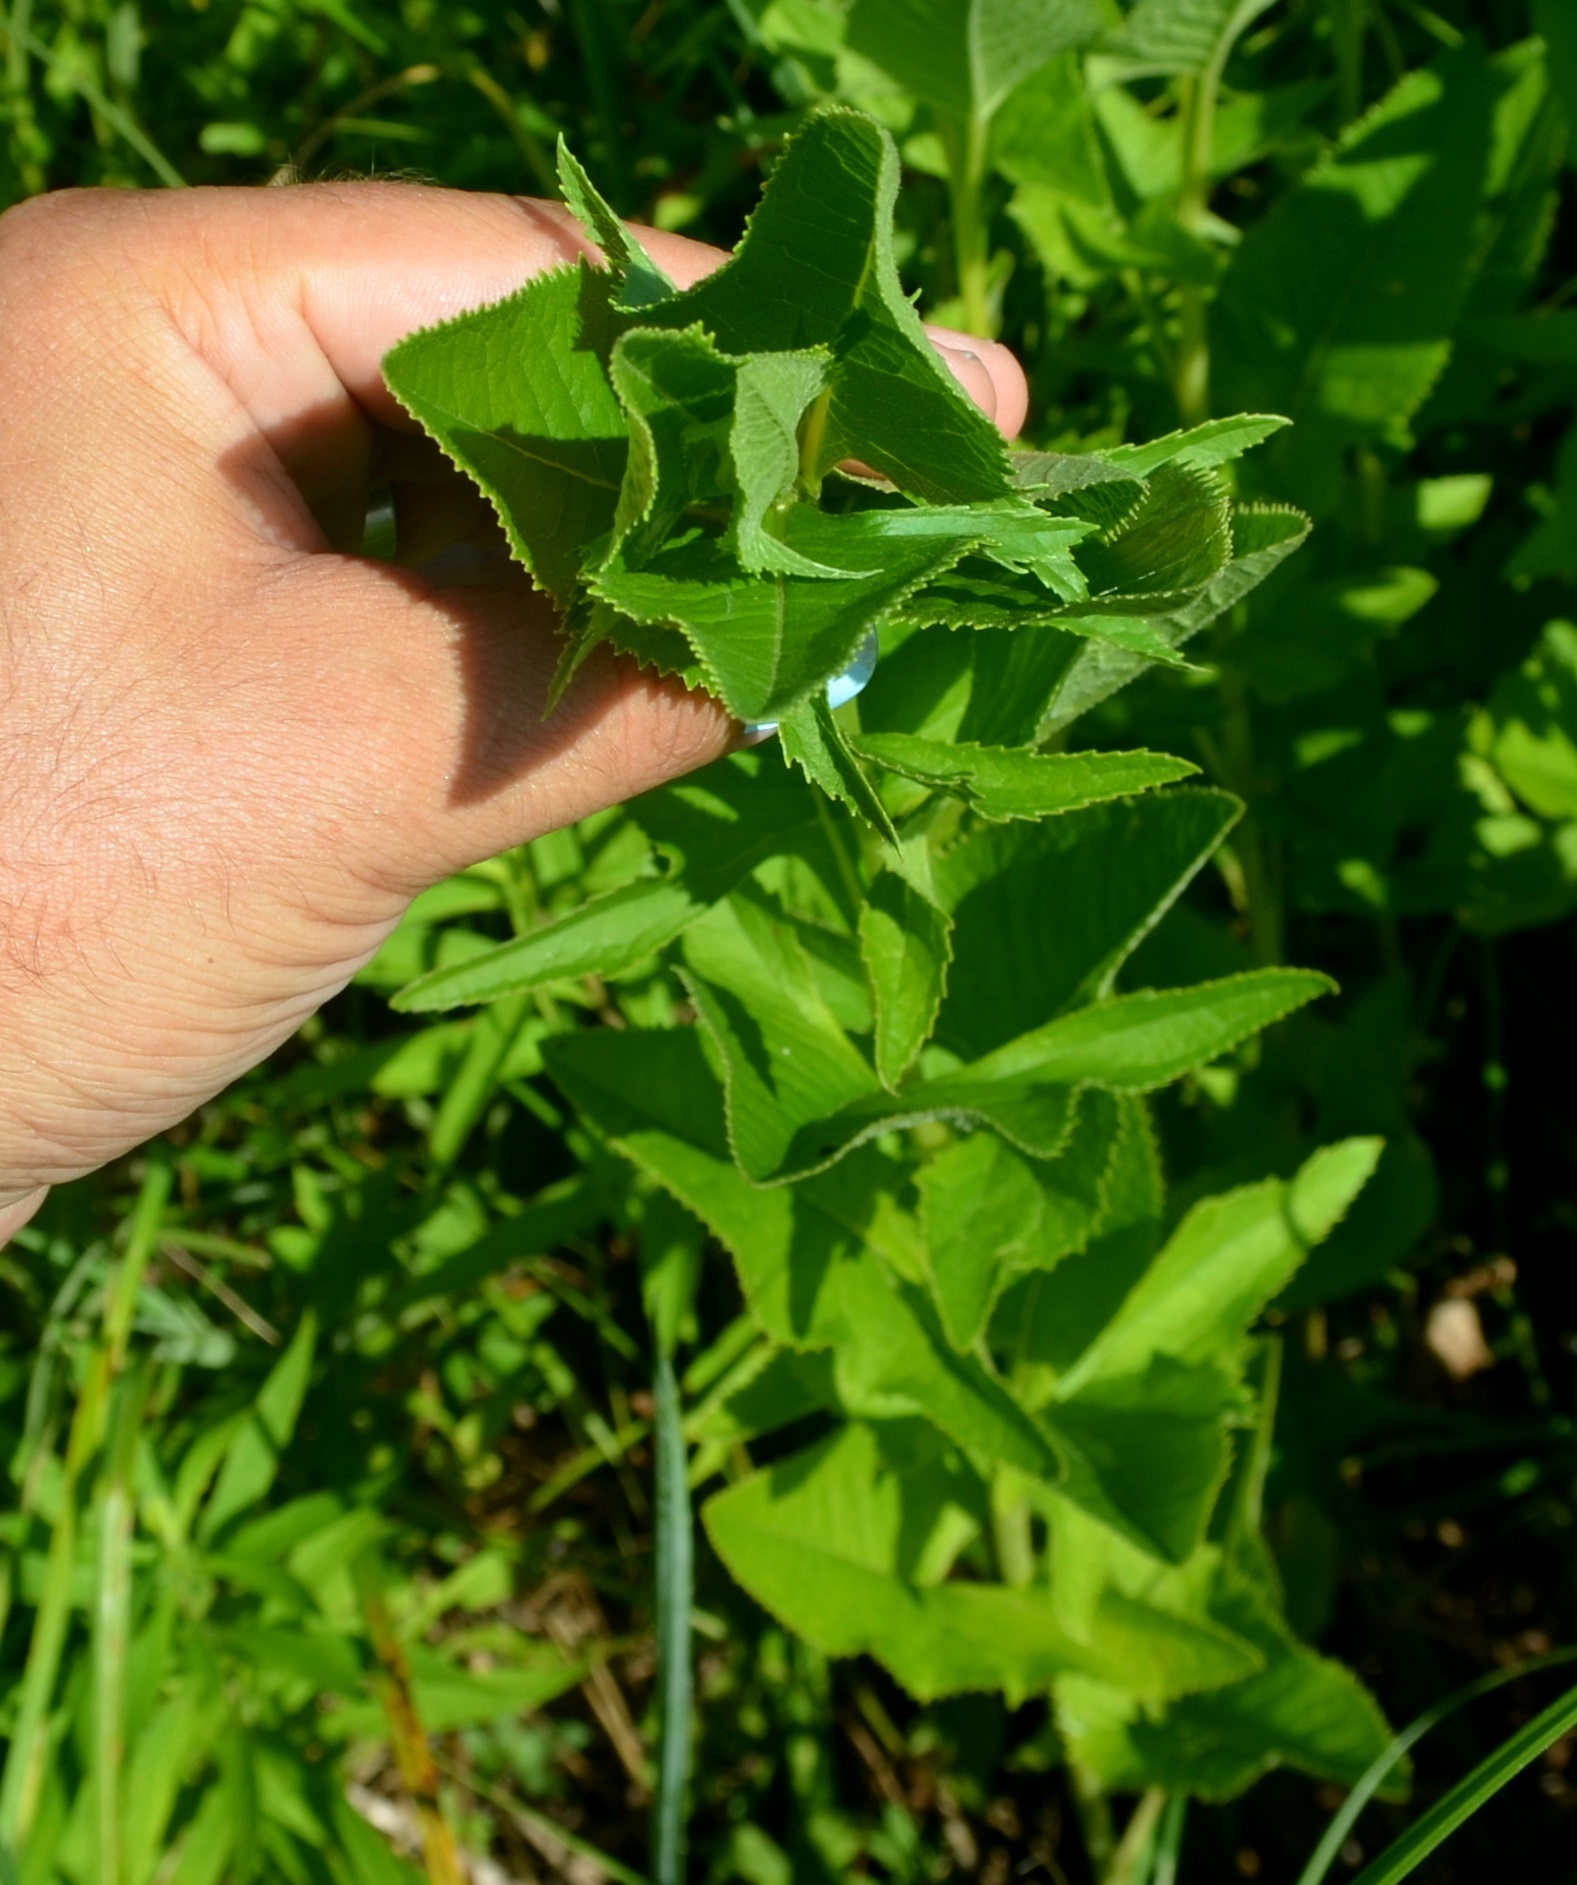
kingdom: Plantae
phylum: Tracheophyta
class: Magnoliopsida
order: Asterales
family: Asteraceae
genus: Hasteola
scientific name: Hasteola suaveolens
